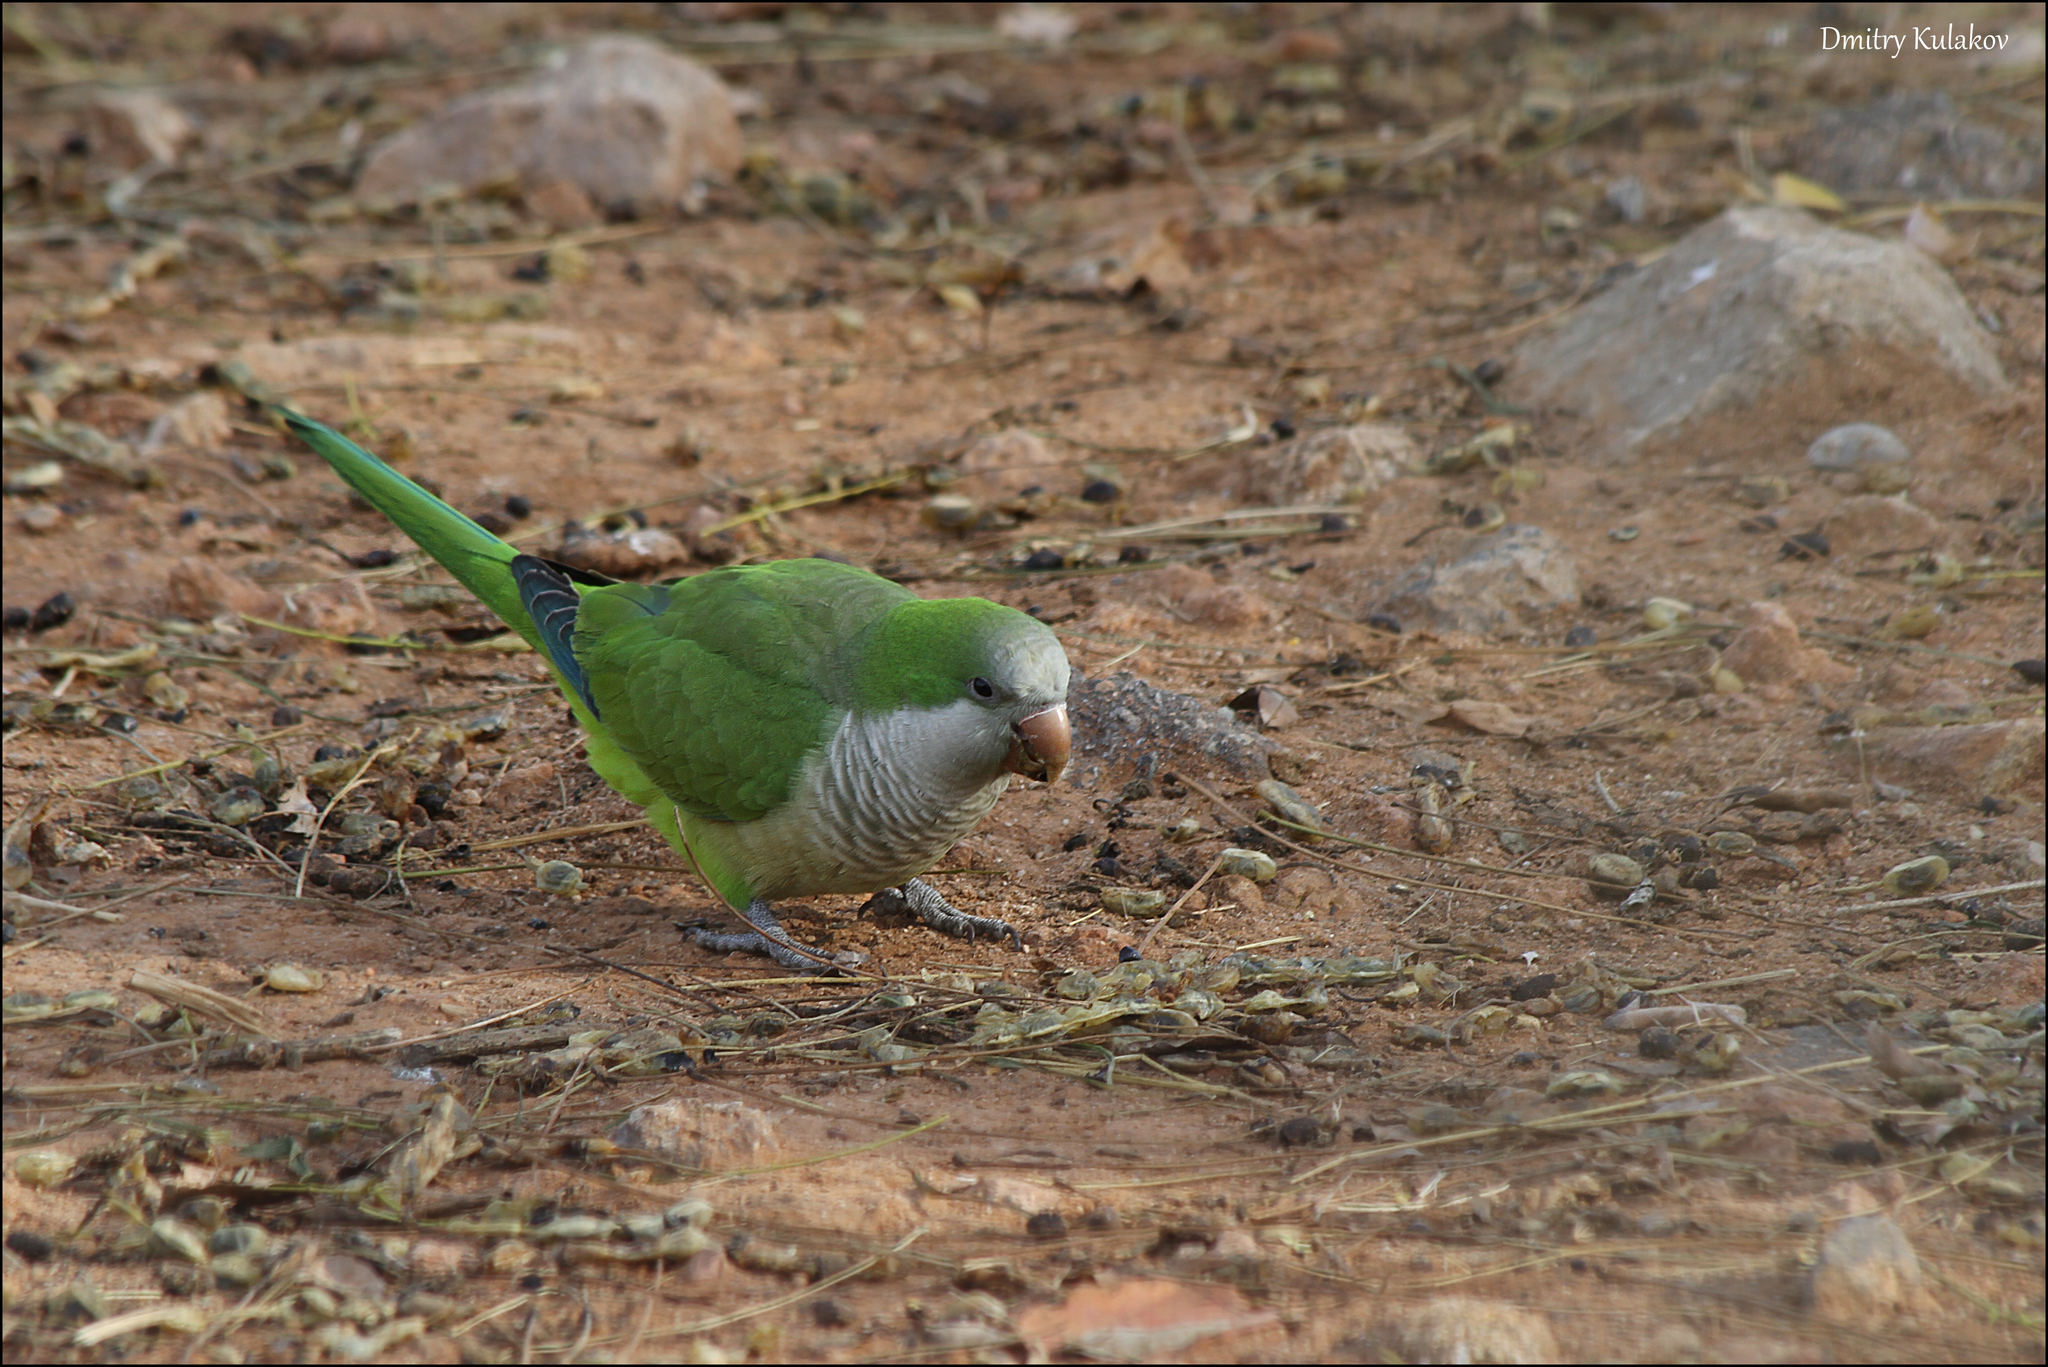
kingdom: Animalia
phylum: Chordata
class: Aves
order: Psittaciformes
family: Psittacidae
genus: Myiopsitta
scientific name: Myiopsitta monachus
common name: Monk parakeet
